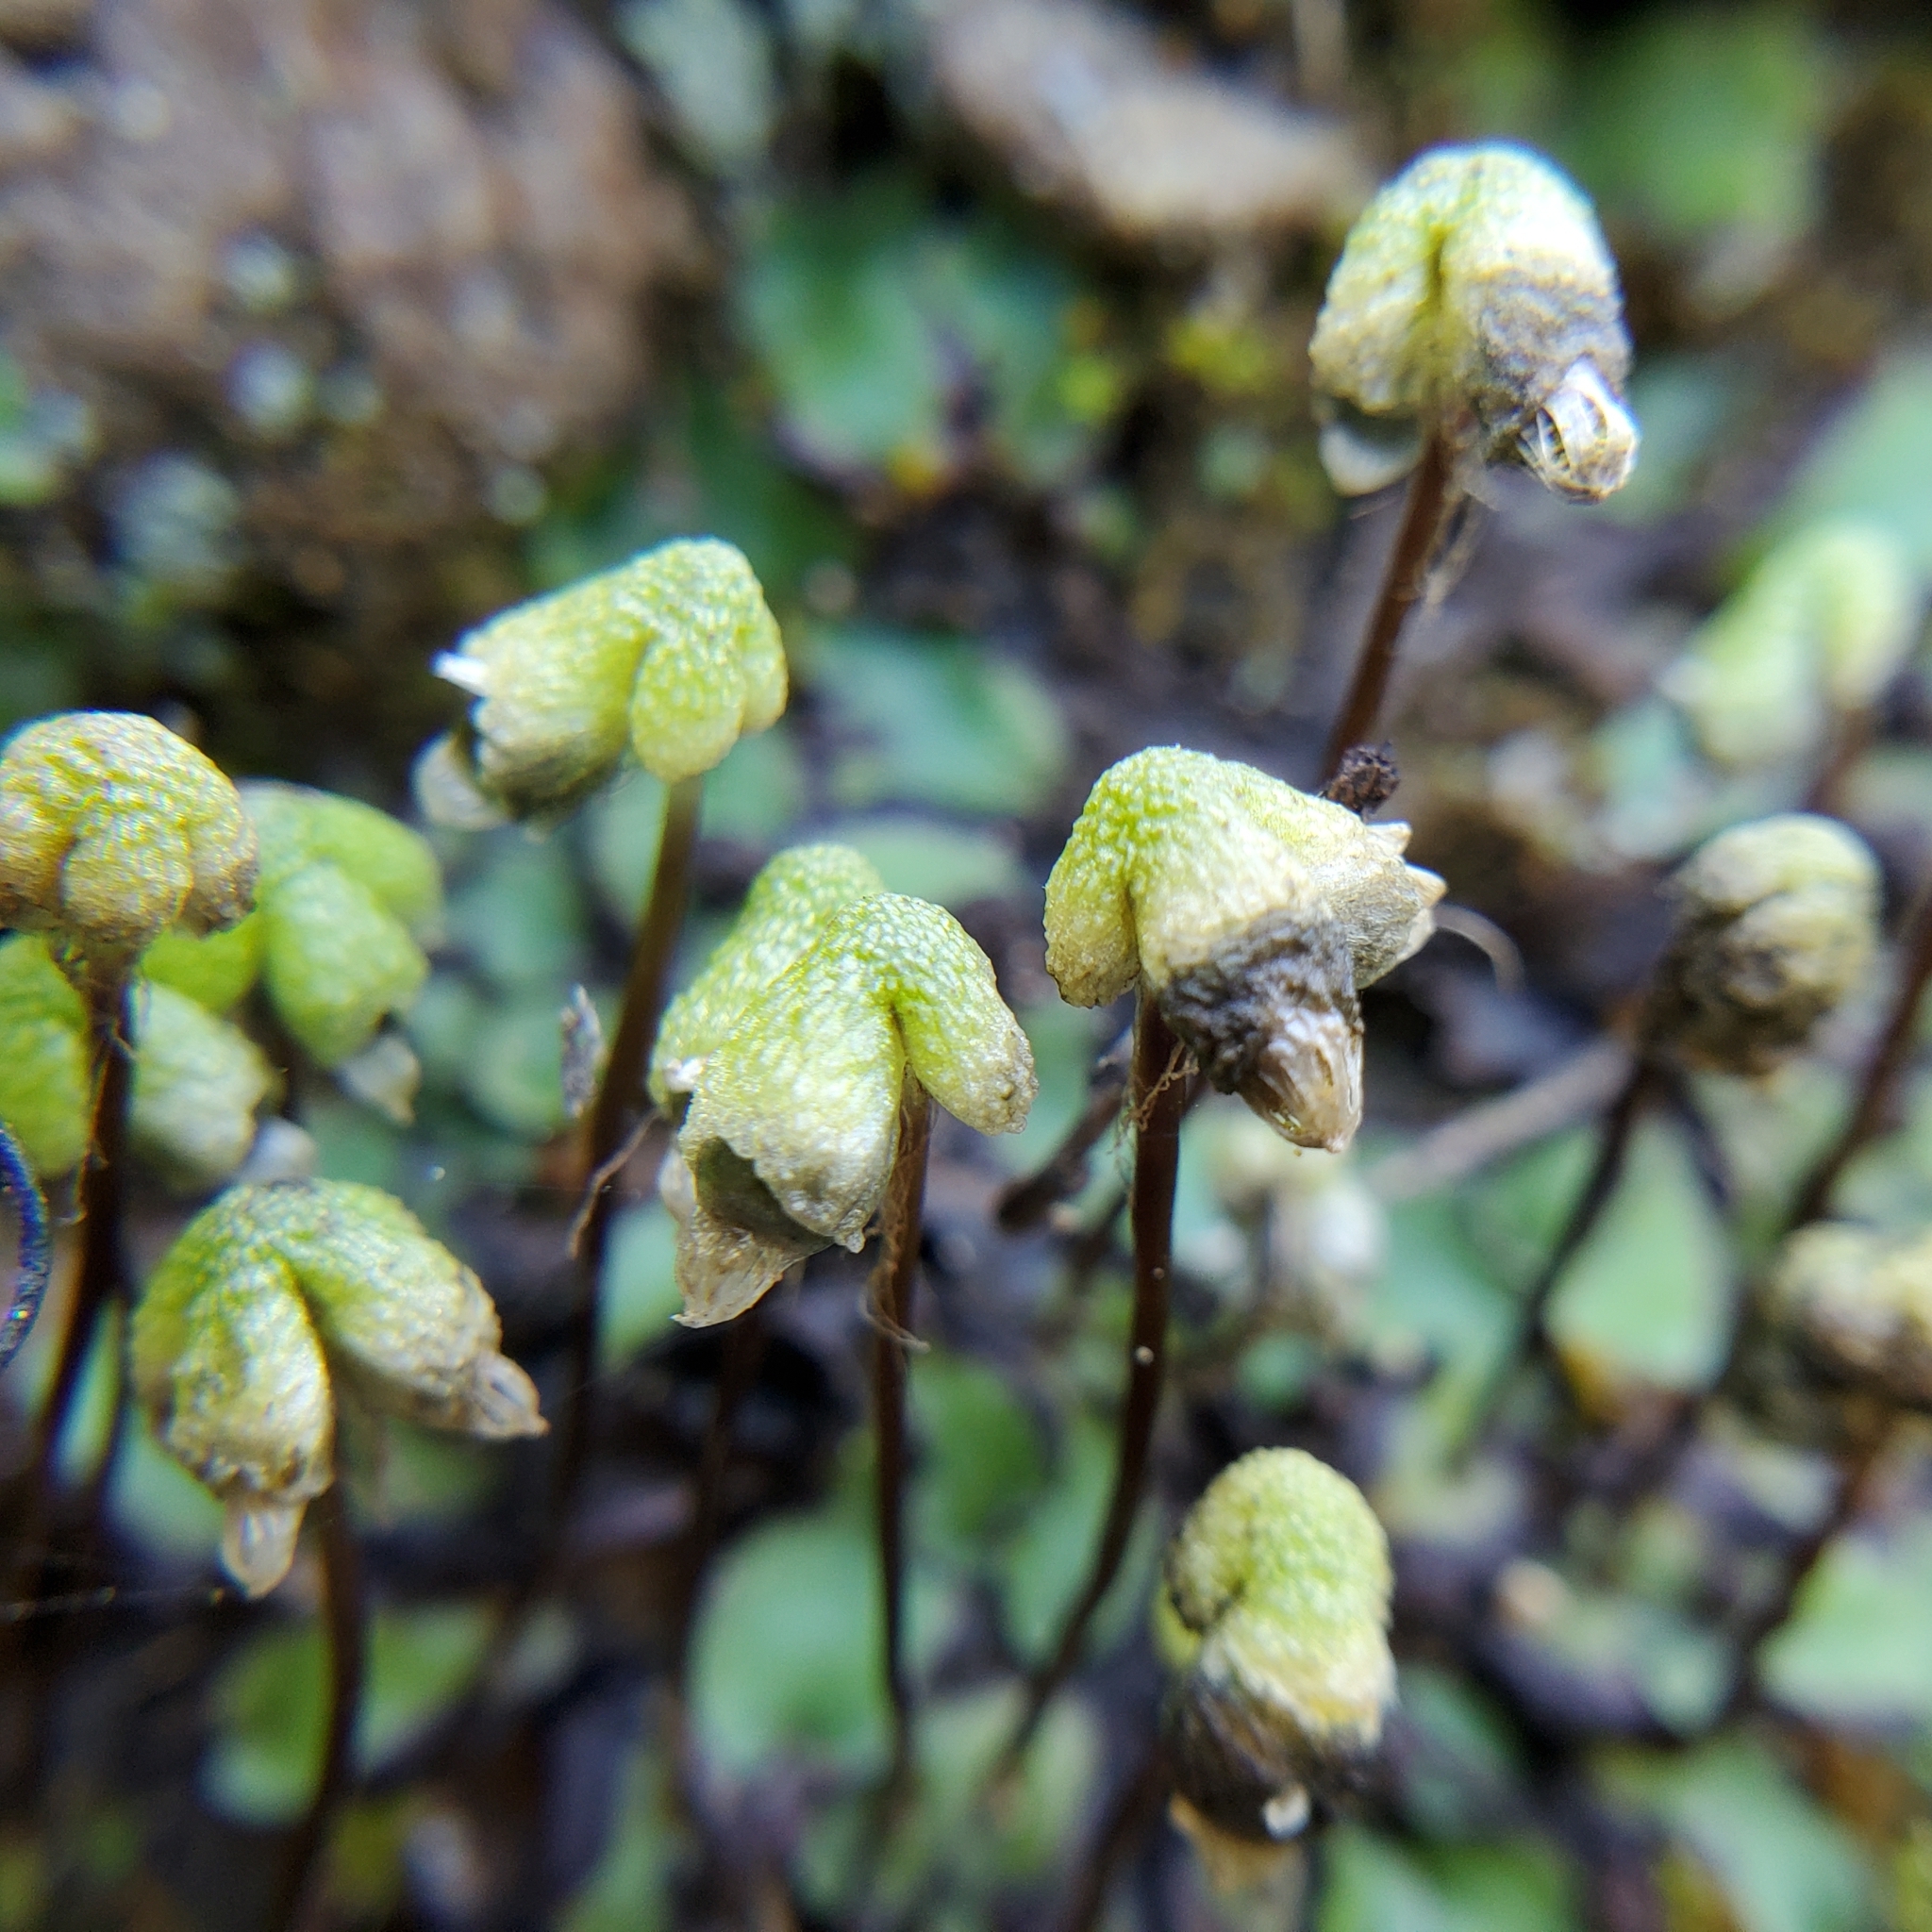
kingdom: Plantae
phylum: Marchantiophyta
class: Marchantiopsida
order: Marchantiales
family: Aytoniaceae
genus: Asterella
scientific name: Asterella californica
